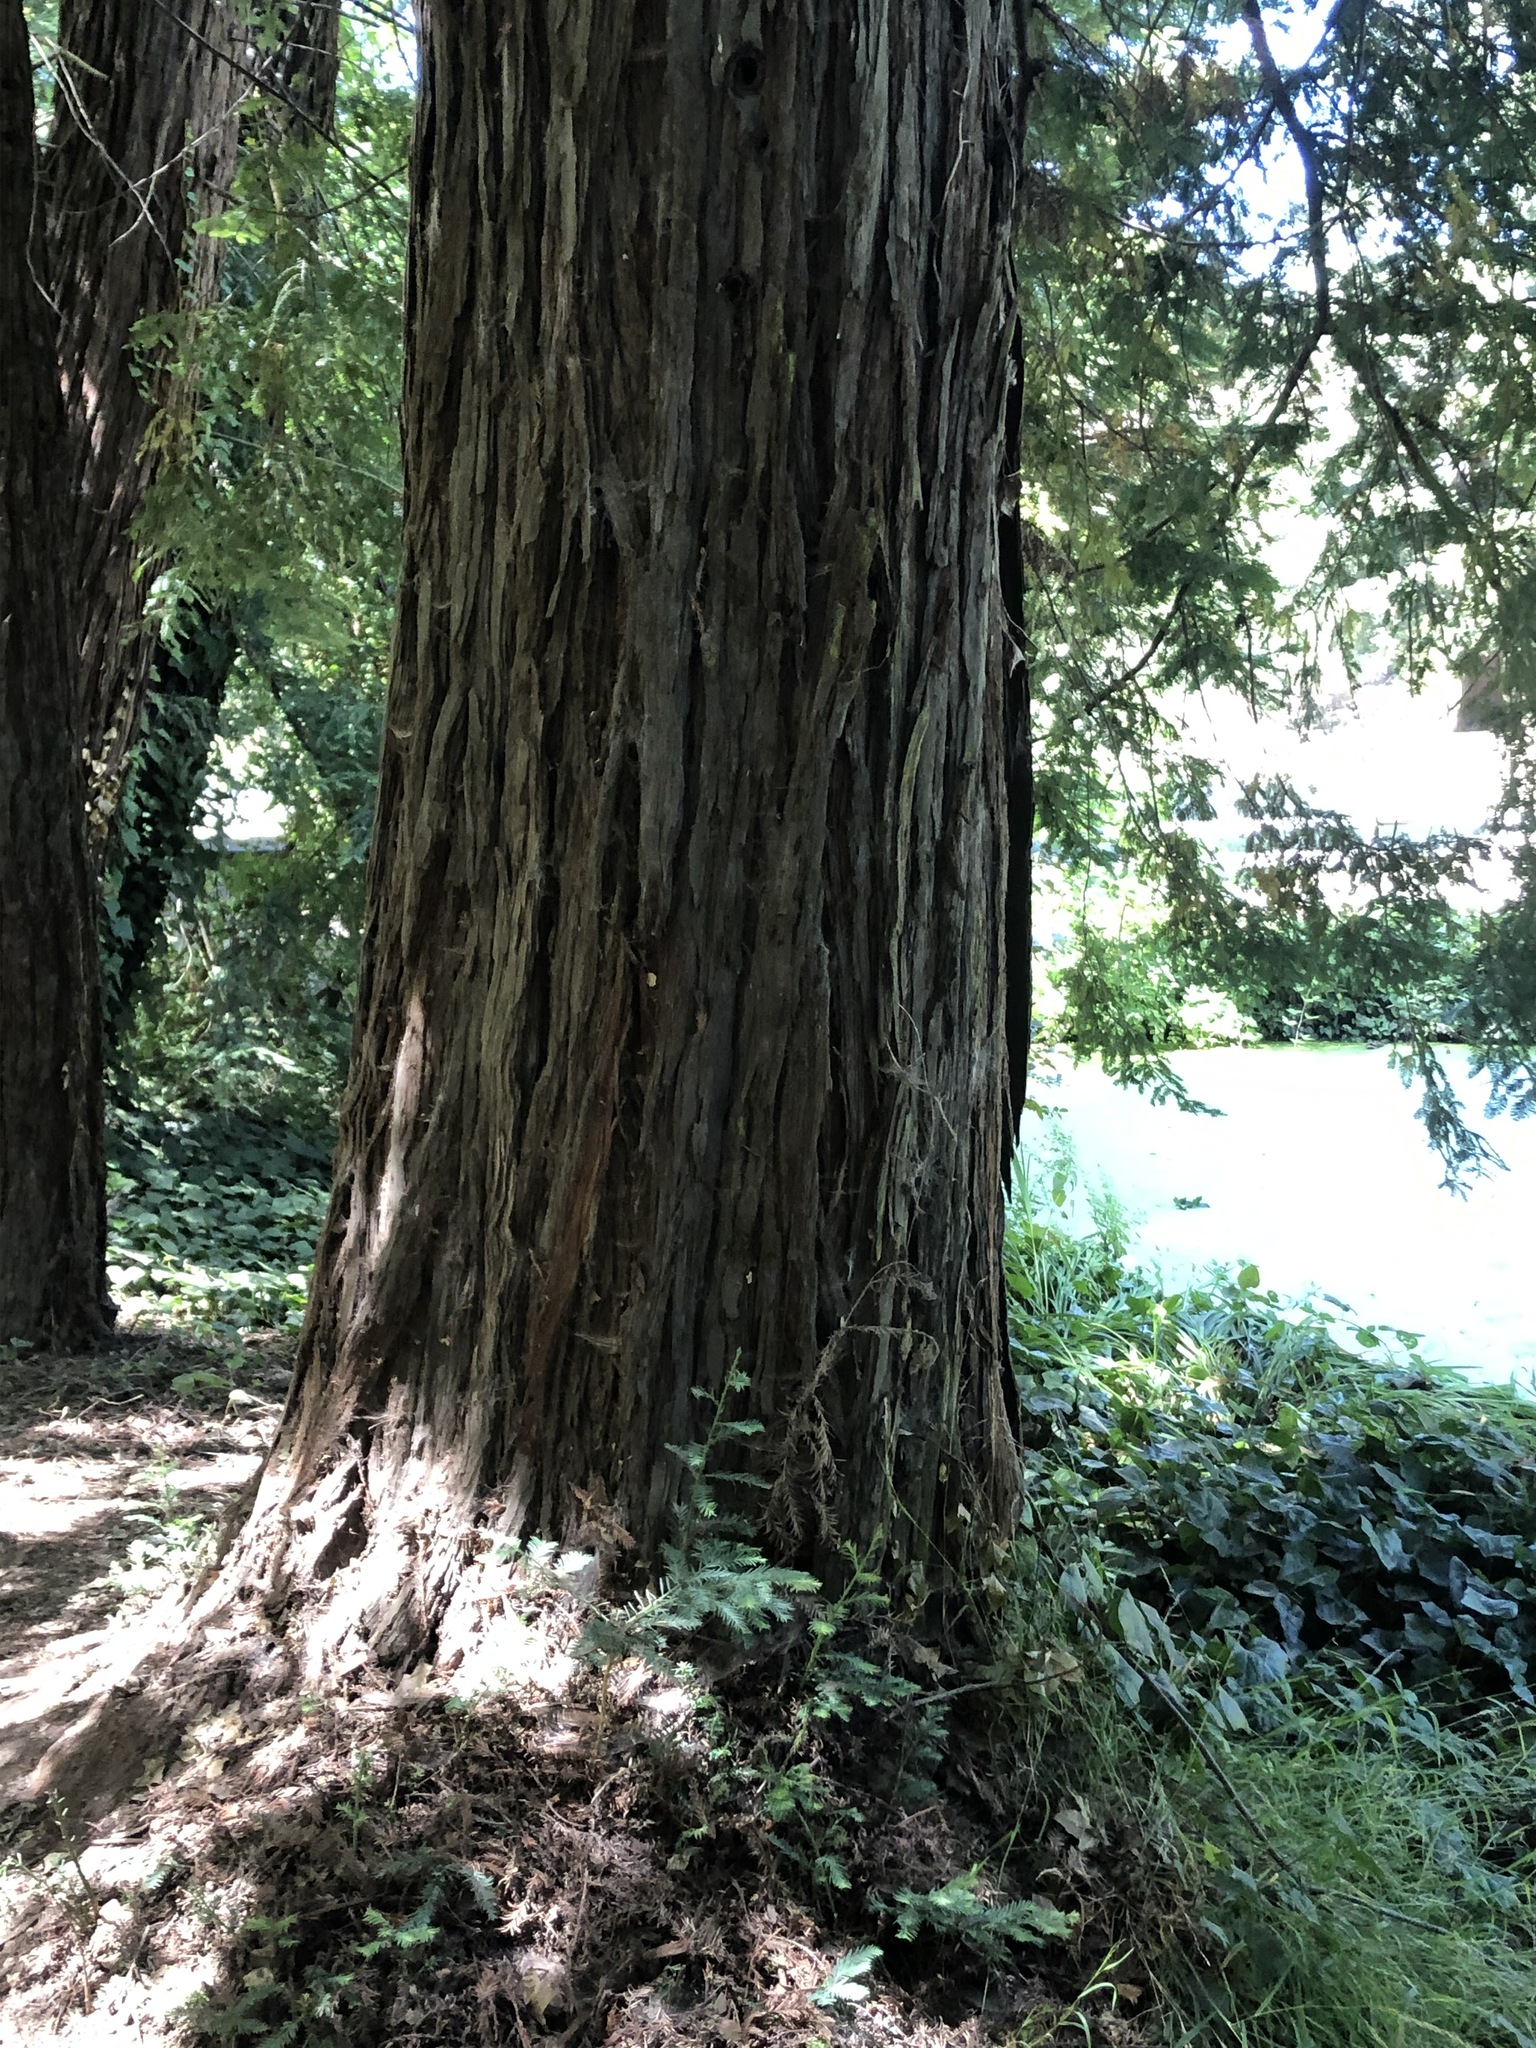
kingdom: Plantae
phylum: Tracheophyta
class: Pinopsida
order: Pinales
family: Cupressaceae
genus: Sequoia
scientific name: Sequoia sempervirens
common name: Coast redwood
